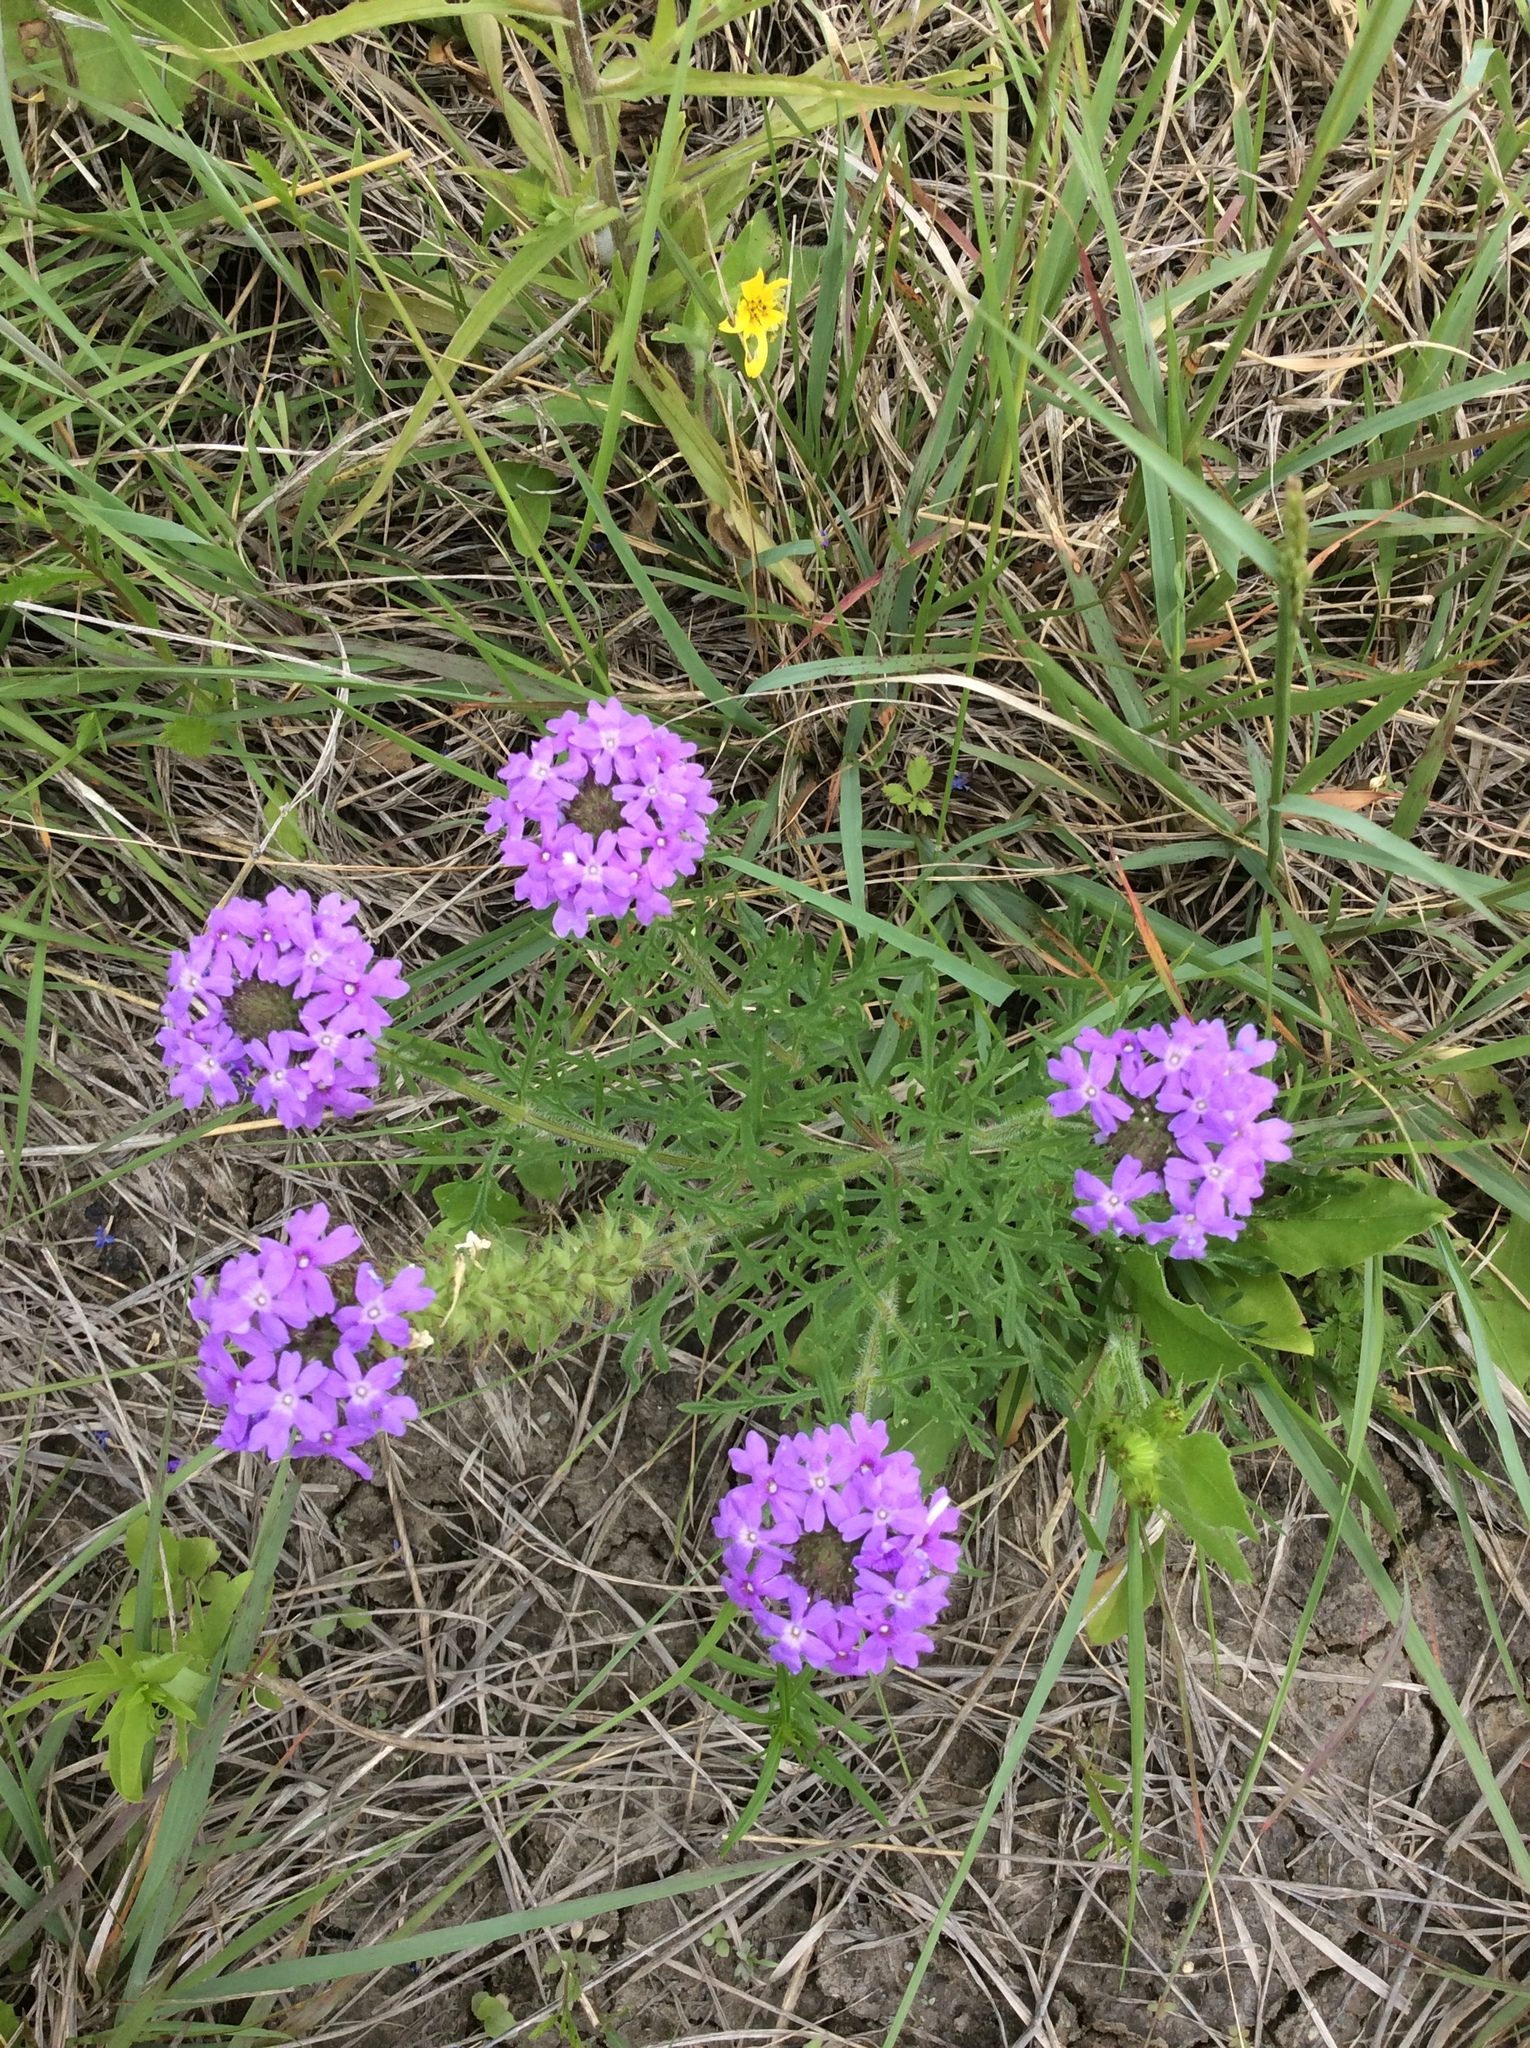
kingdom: Plantae
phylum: Tracheophyta
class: Magnoliopsida
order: Lamiales
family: Verbenaceae
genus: Verbena
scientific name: Verbena bipinnatifida
